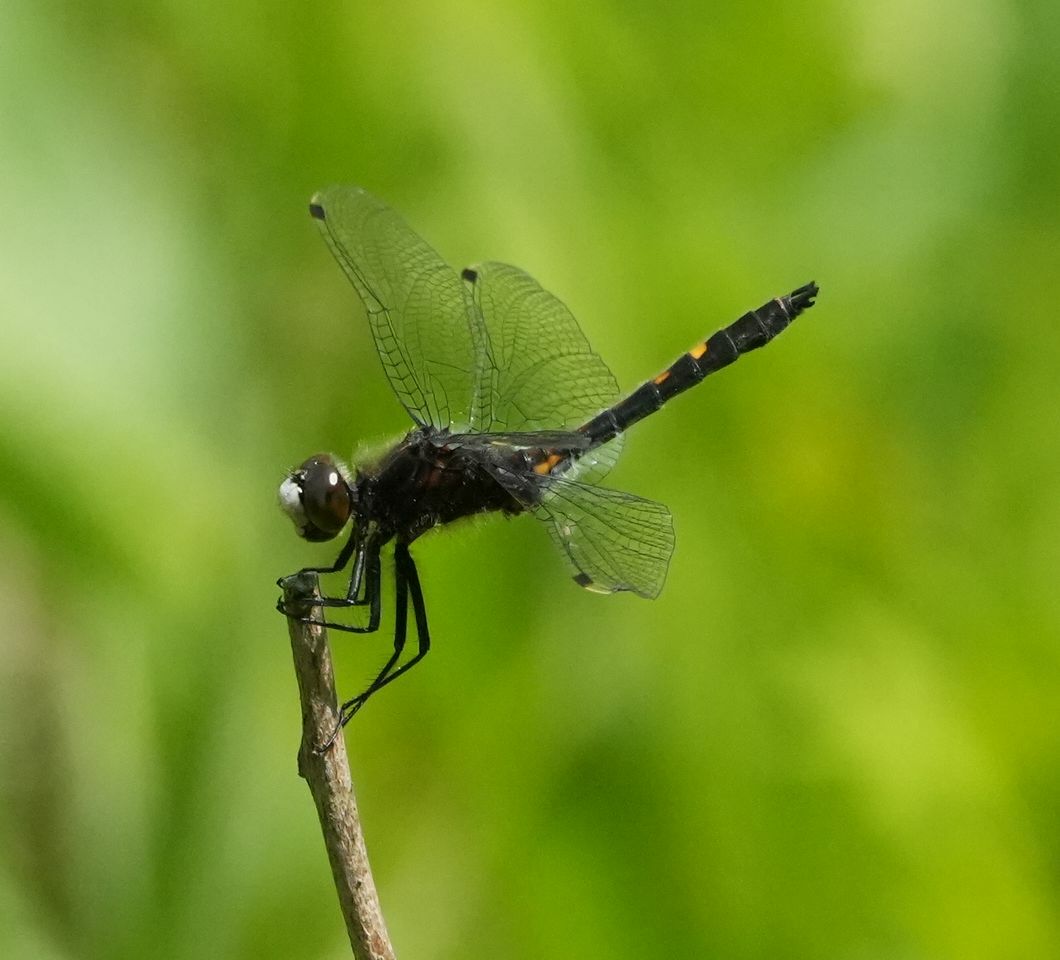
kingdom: Animalia
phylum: Arthropoda
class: Insecta
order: Odonata
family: Libellulidae
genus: Leucorrhinia
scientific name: Leucorrhinia intacta
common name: Dot-tailed whiteface
